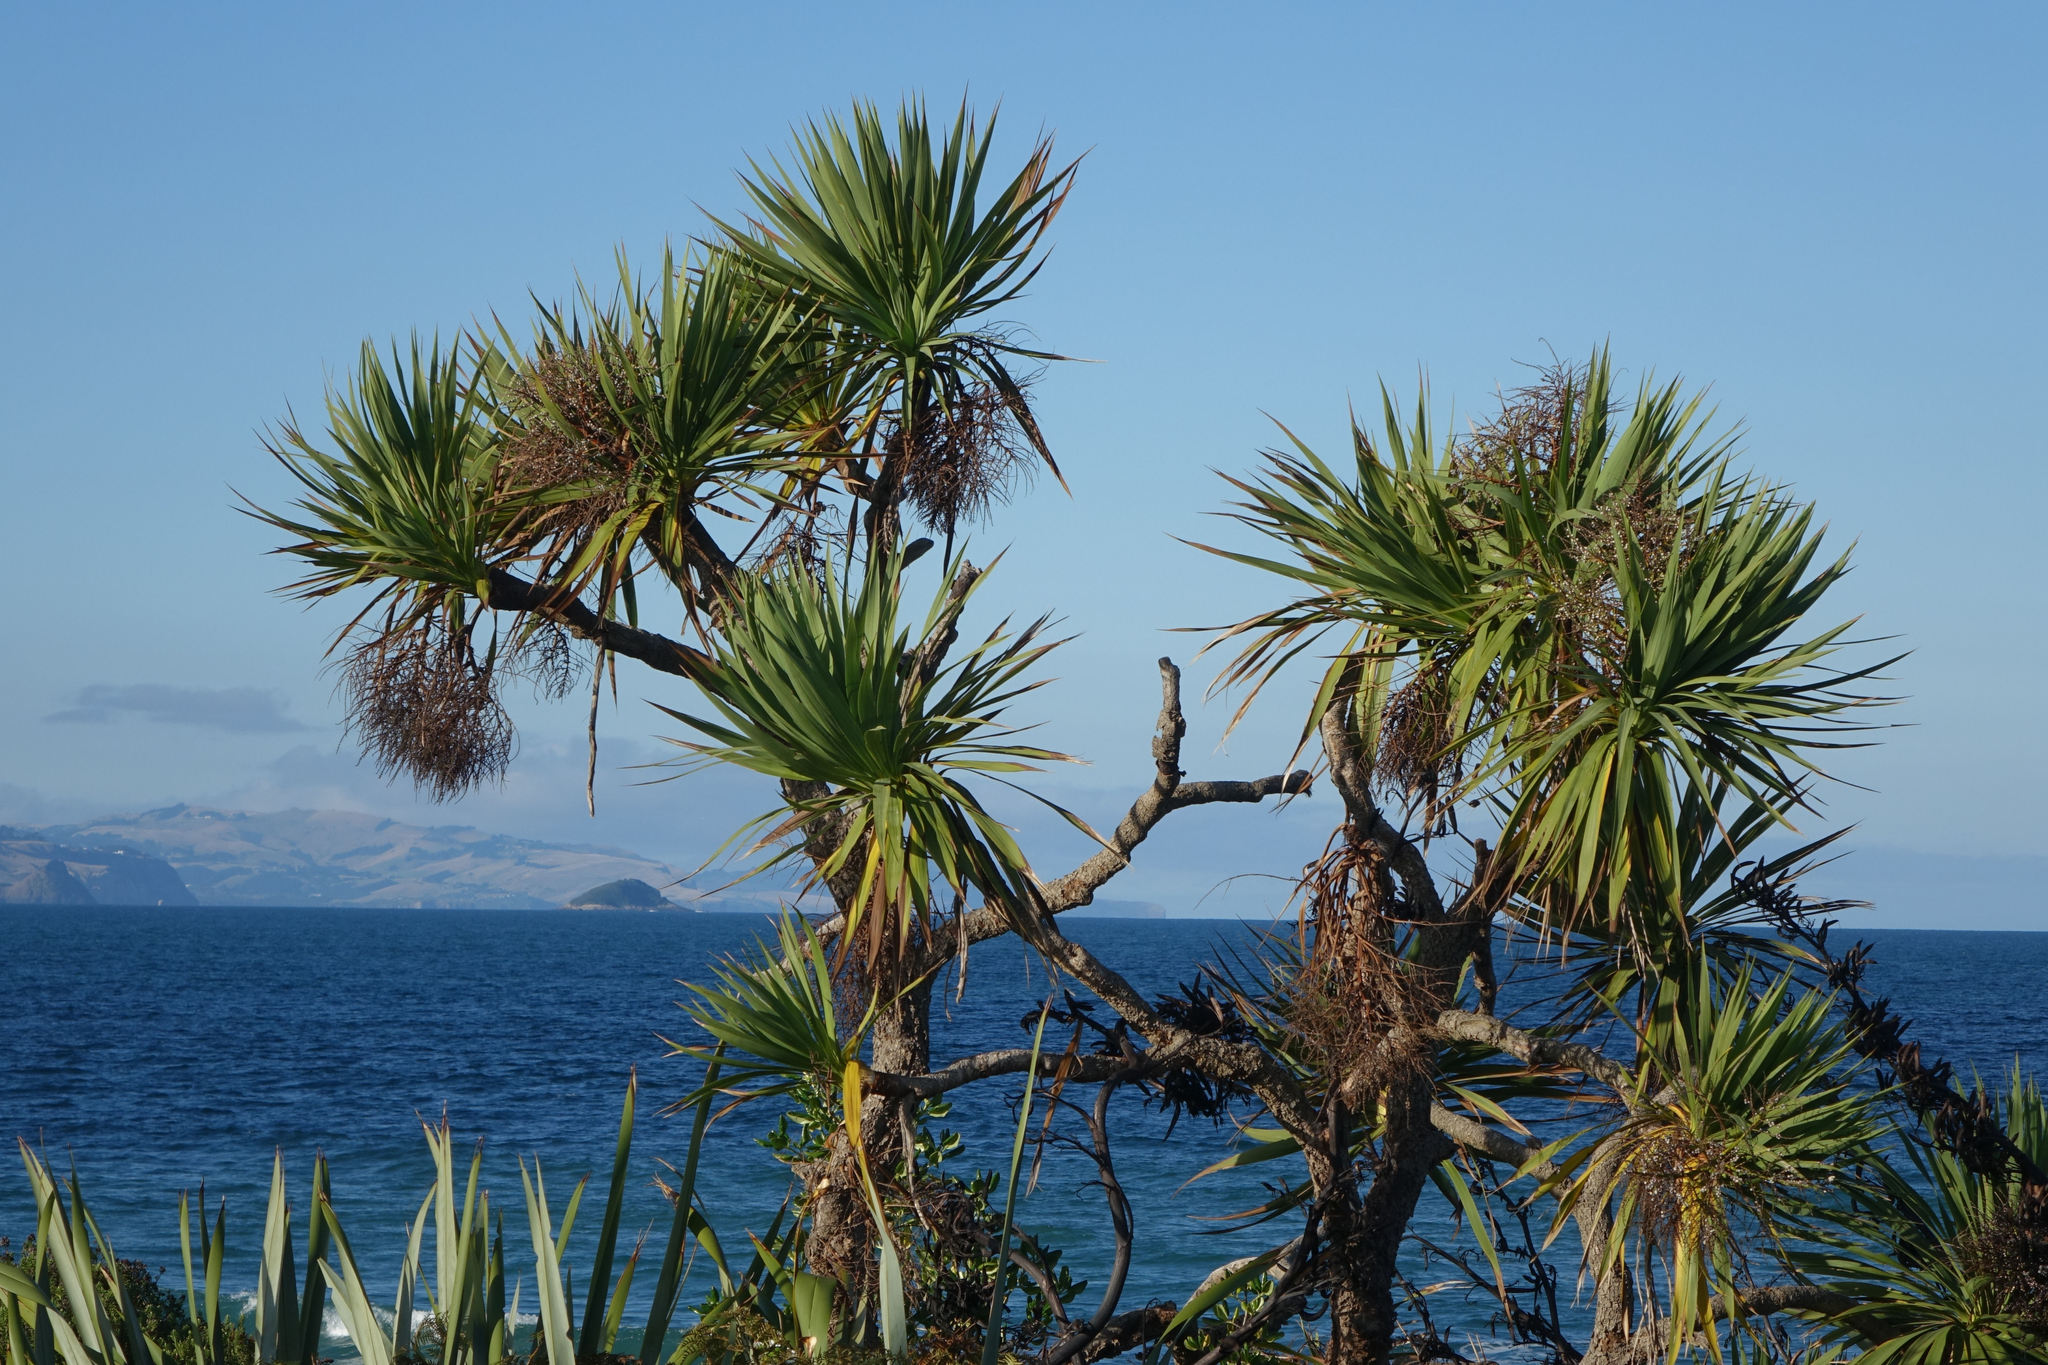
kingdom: Plantae
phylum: Tracheophyta
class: Liliopsida
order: Asparagales
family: Asparagaceae
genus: Cordyline
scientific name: Cordyline australis
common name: Cabbage-palm
